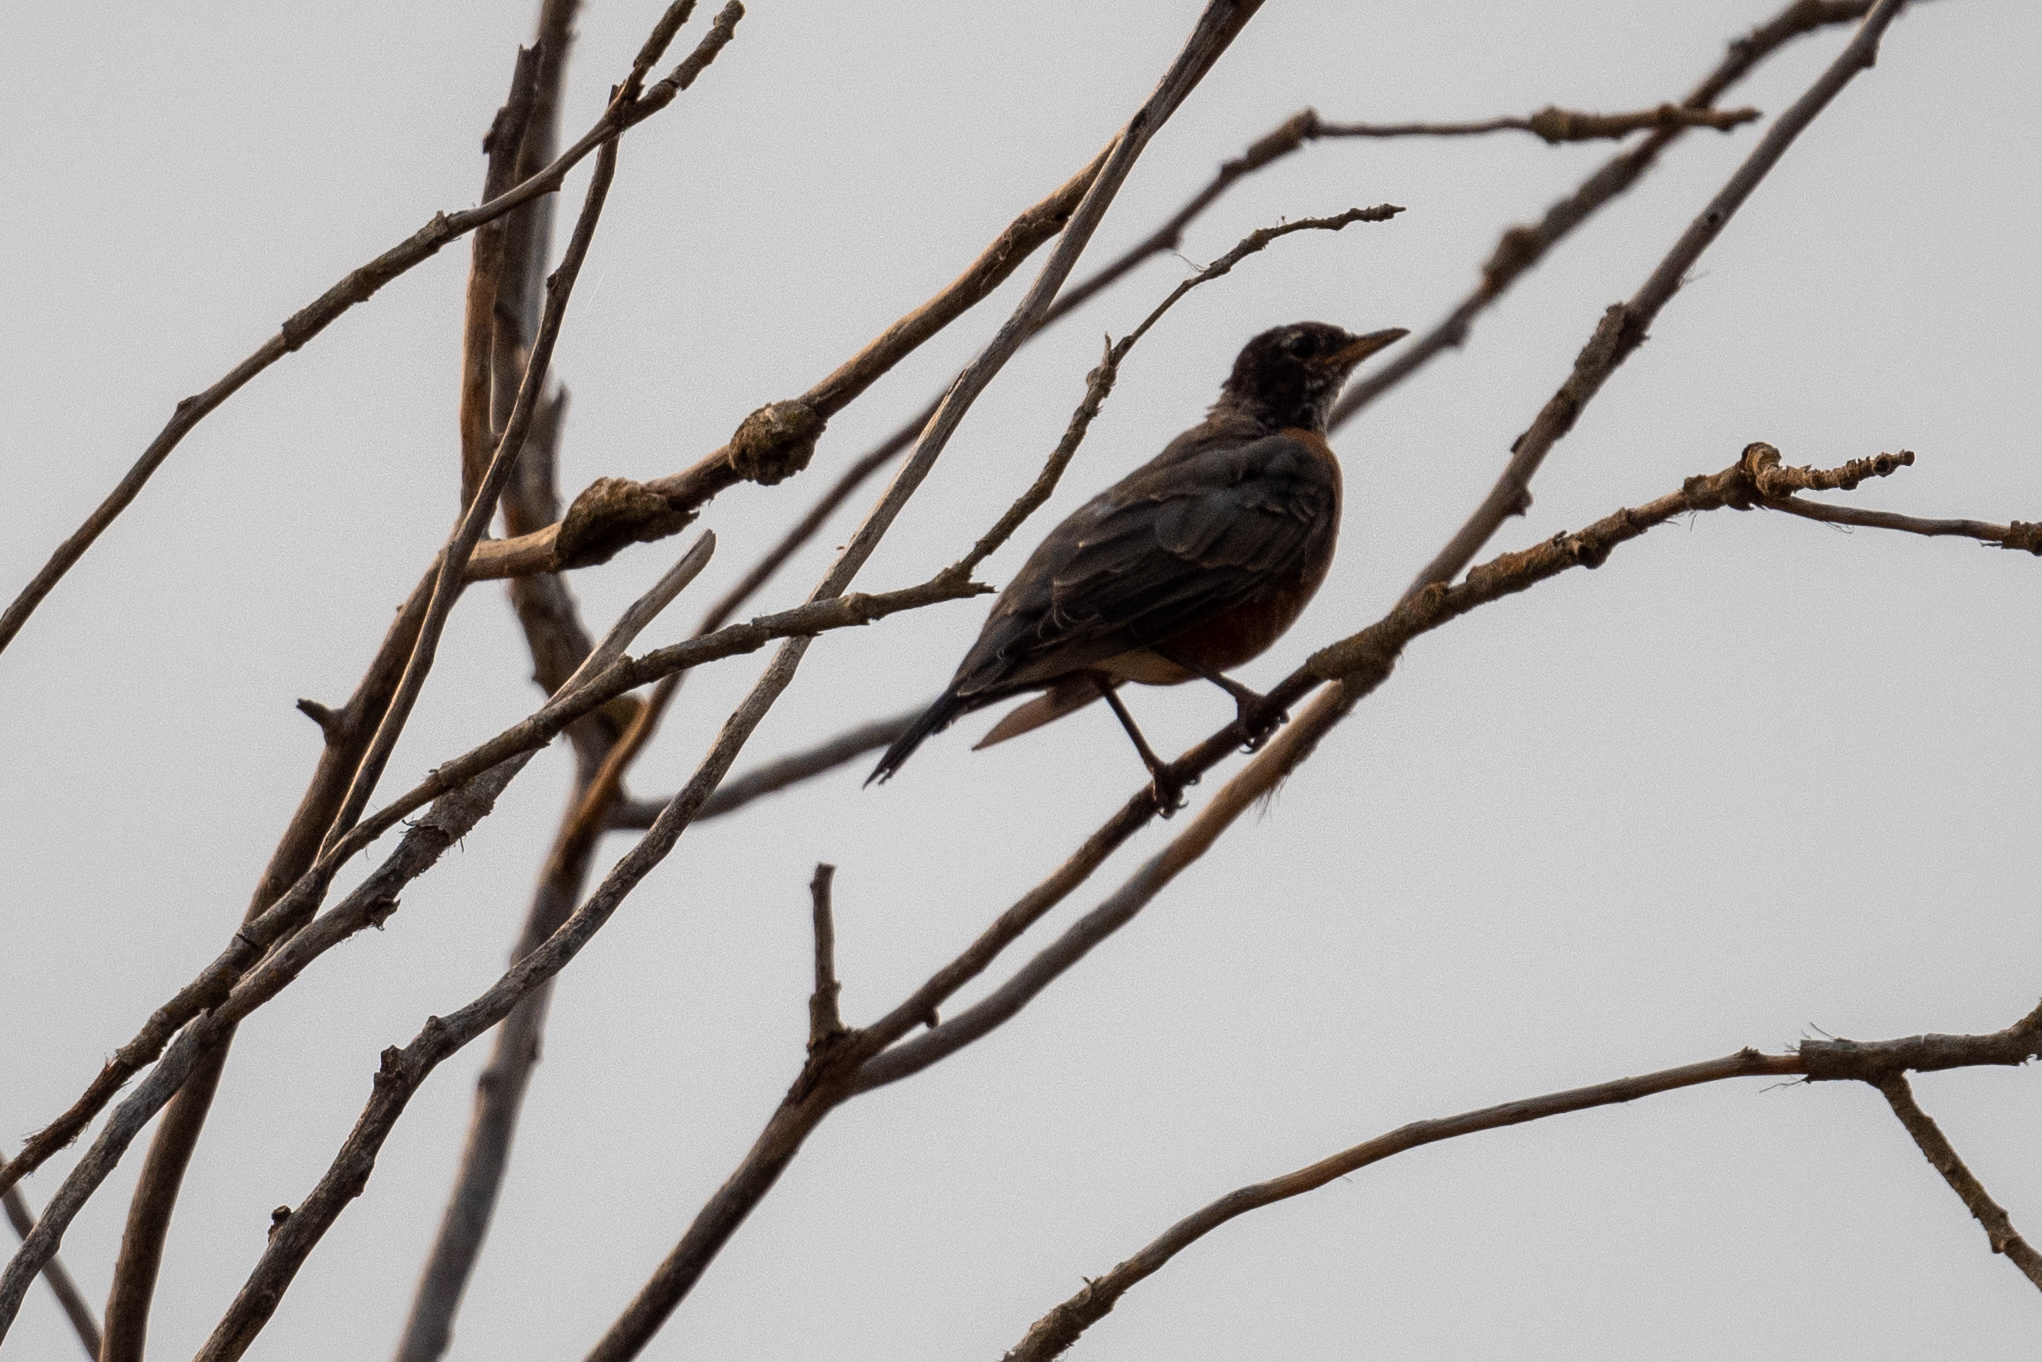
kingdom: Animalia
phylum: Chordata
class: Aves
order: Passeriformes
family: Turdidae
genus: Turdus
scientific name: Turdus migratorius
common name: American robin
